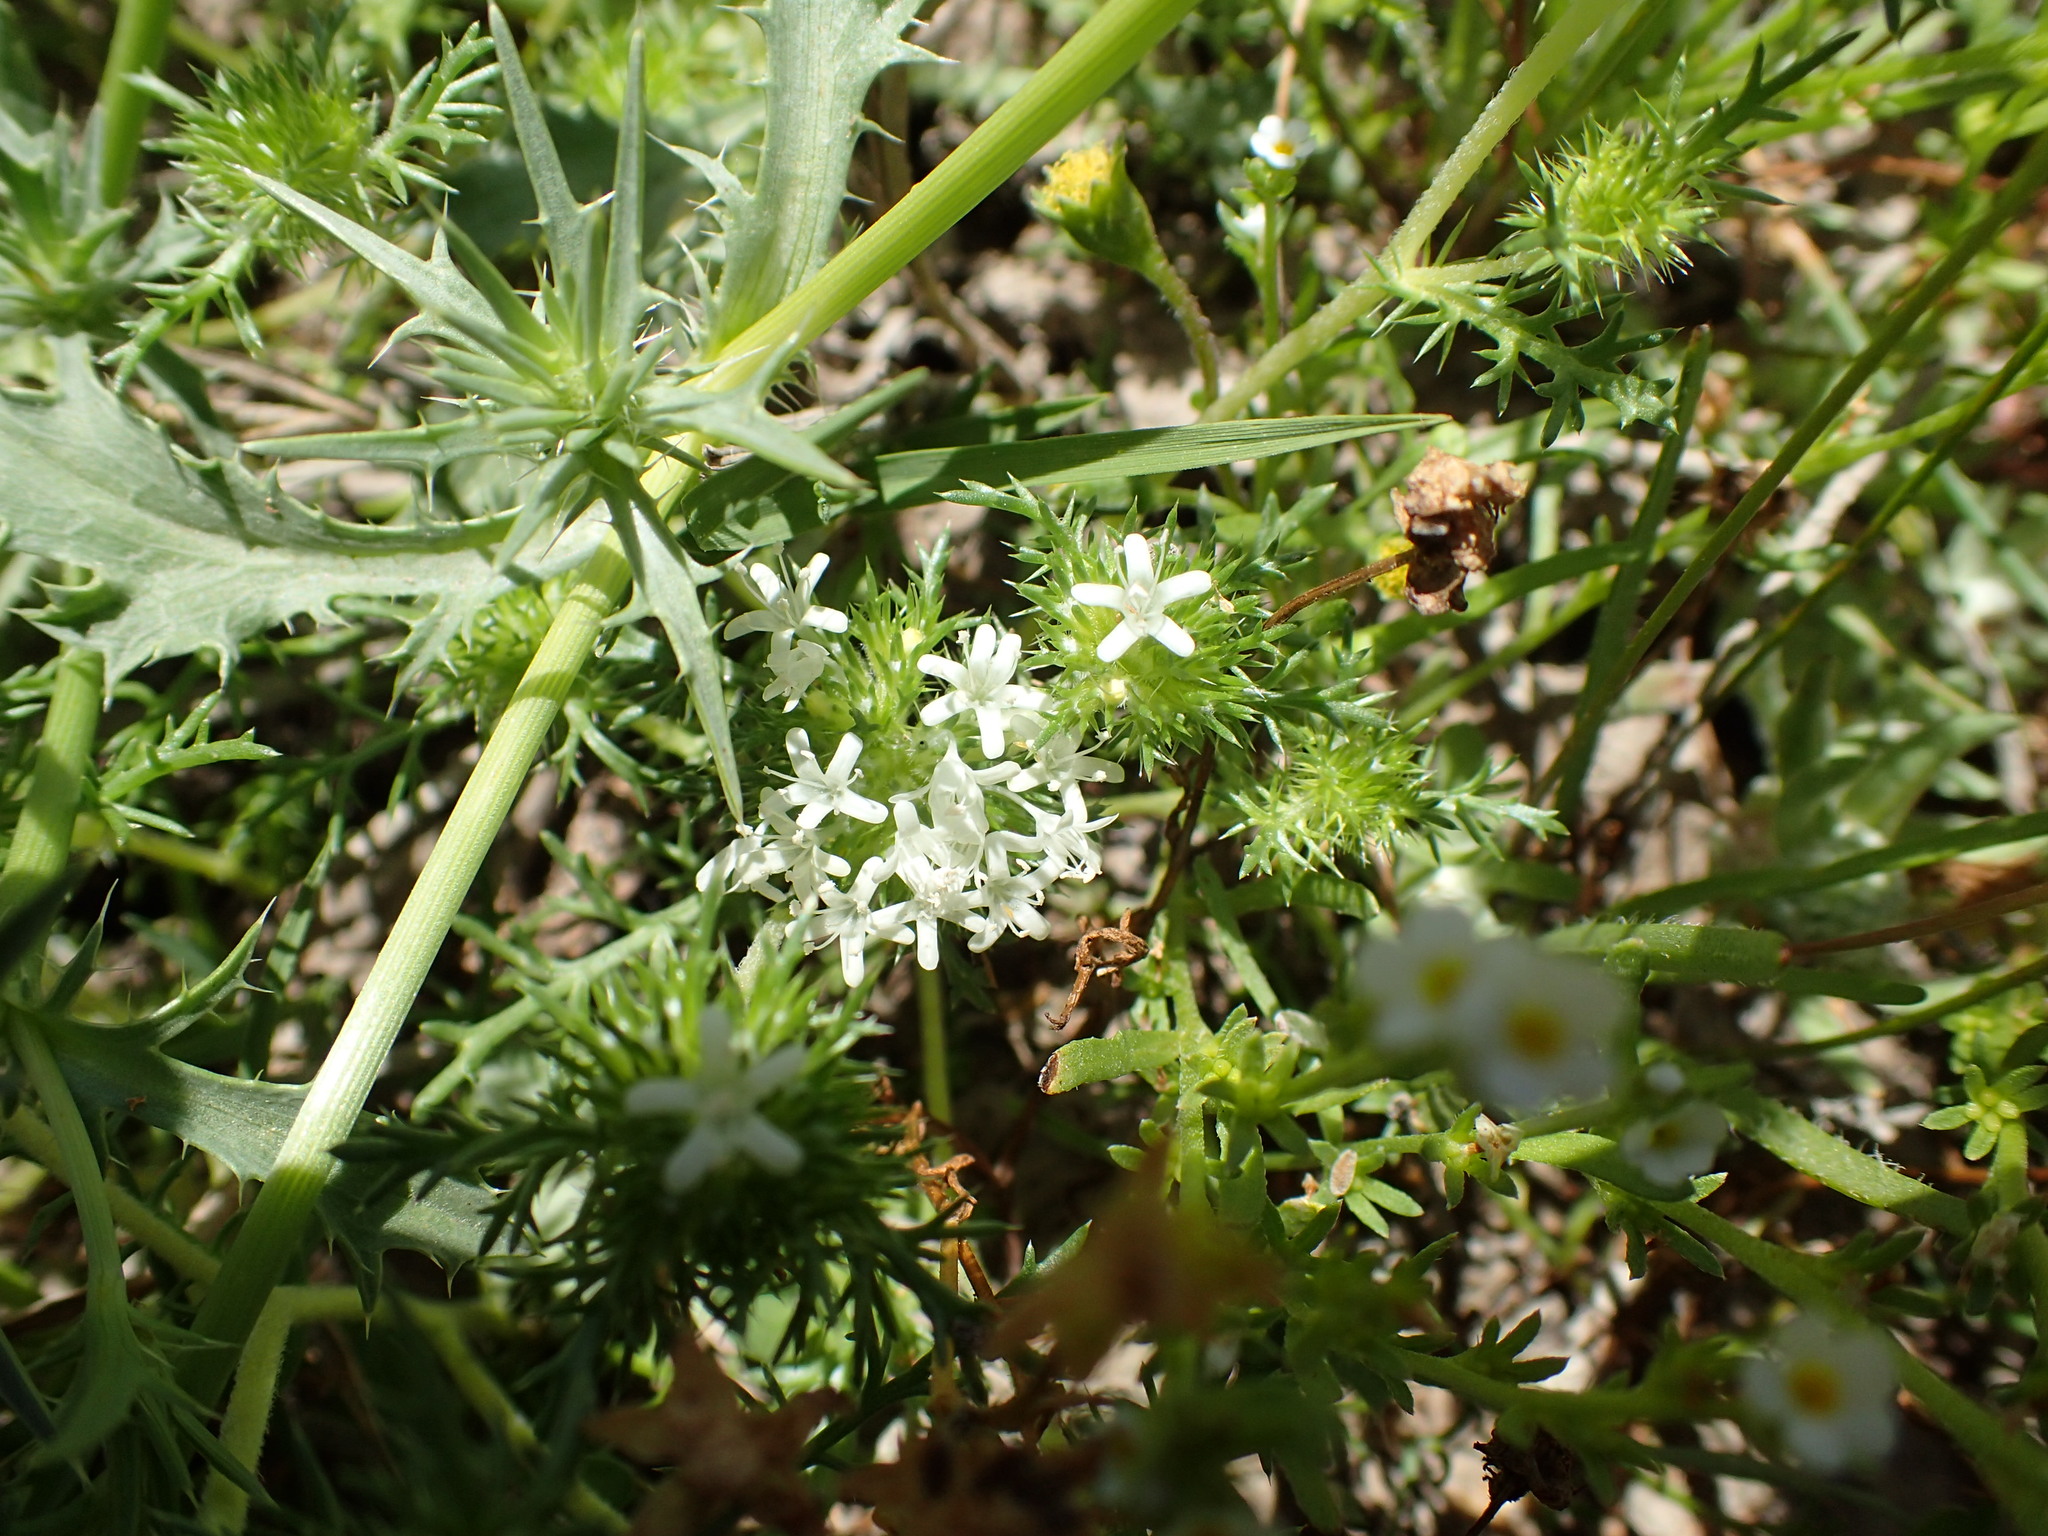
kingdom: Plantae
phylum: Tracheophyta
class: Magnoliopsida
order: Ericales
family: Polemoniaceae
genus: Navarretia
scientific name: Navarretia leucocephala
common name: White-flowered navarretia
